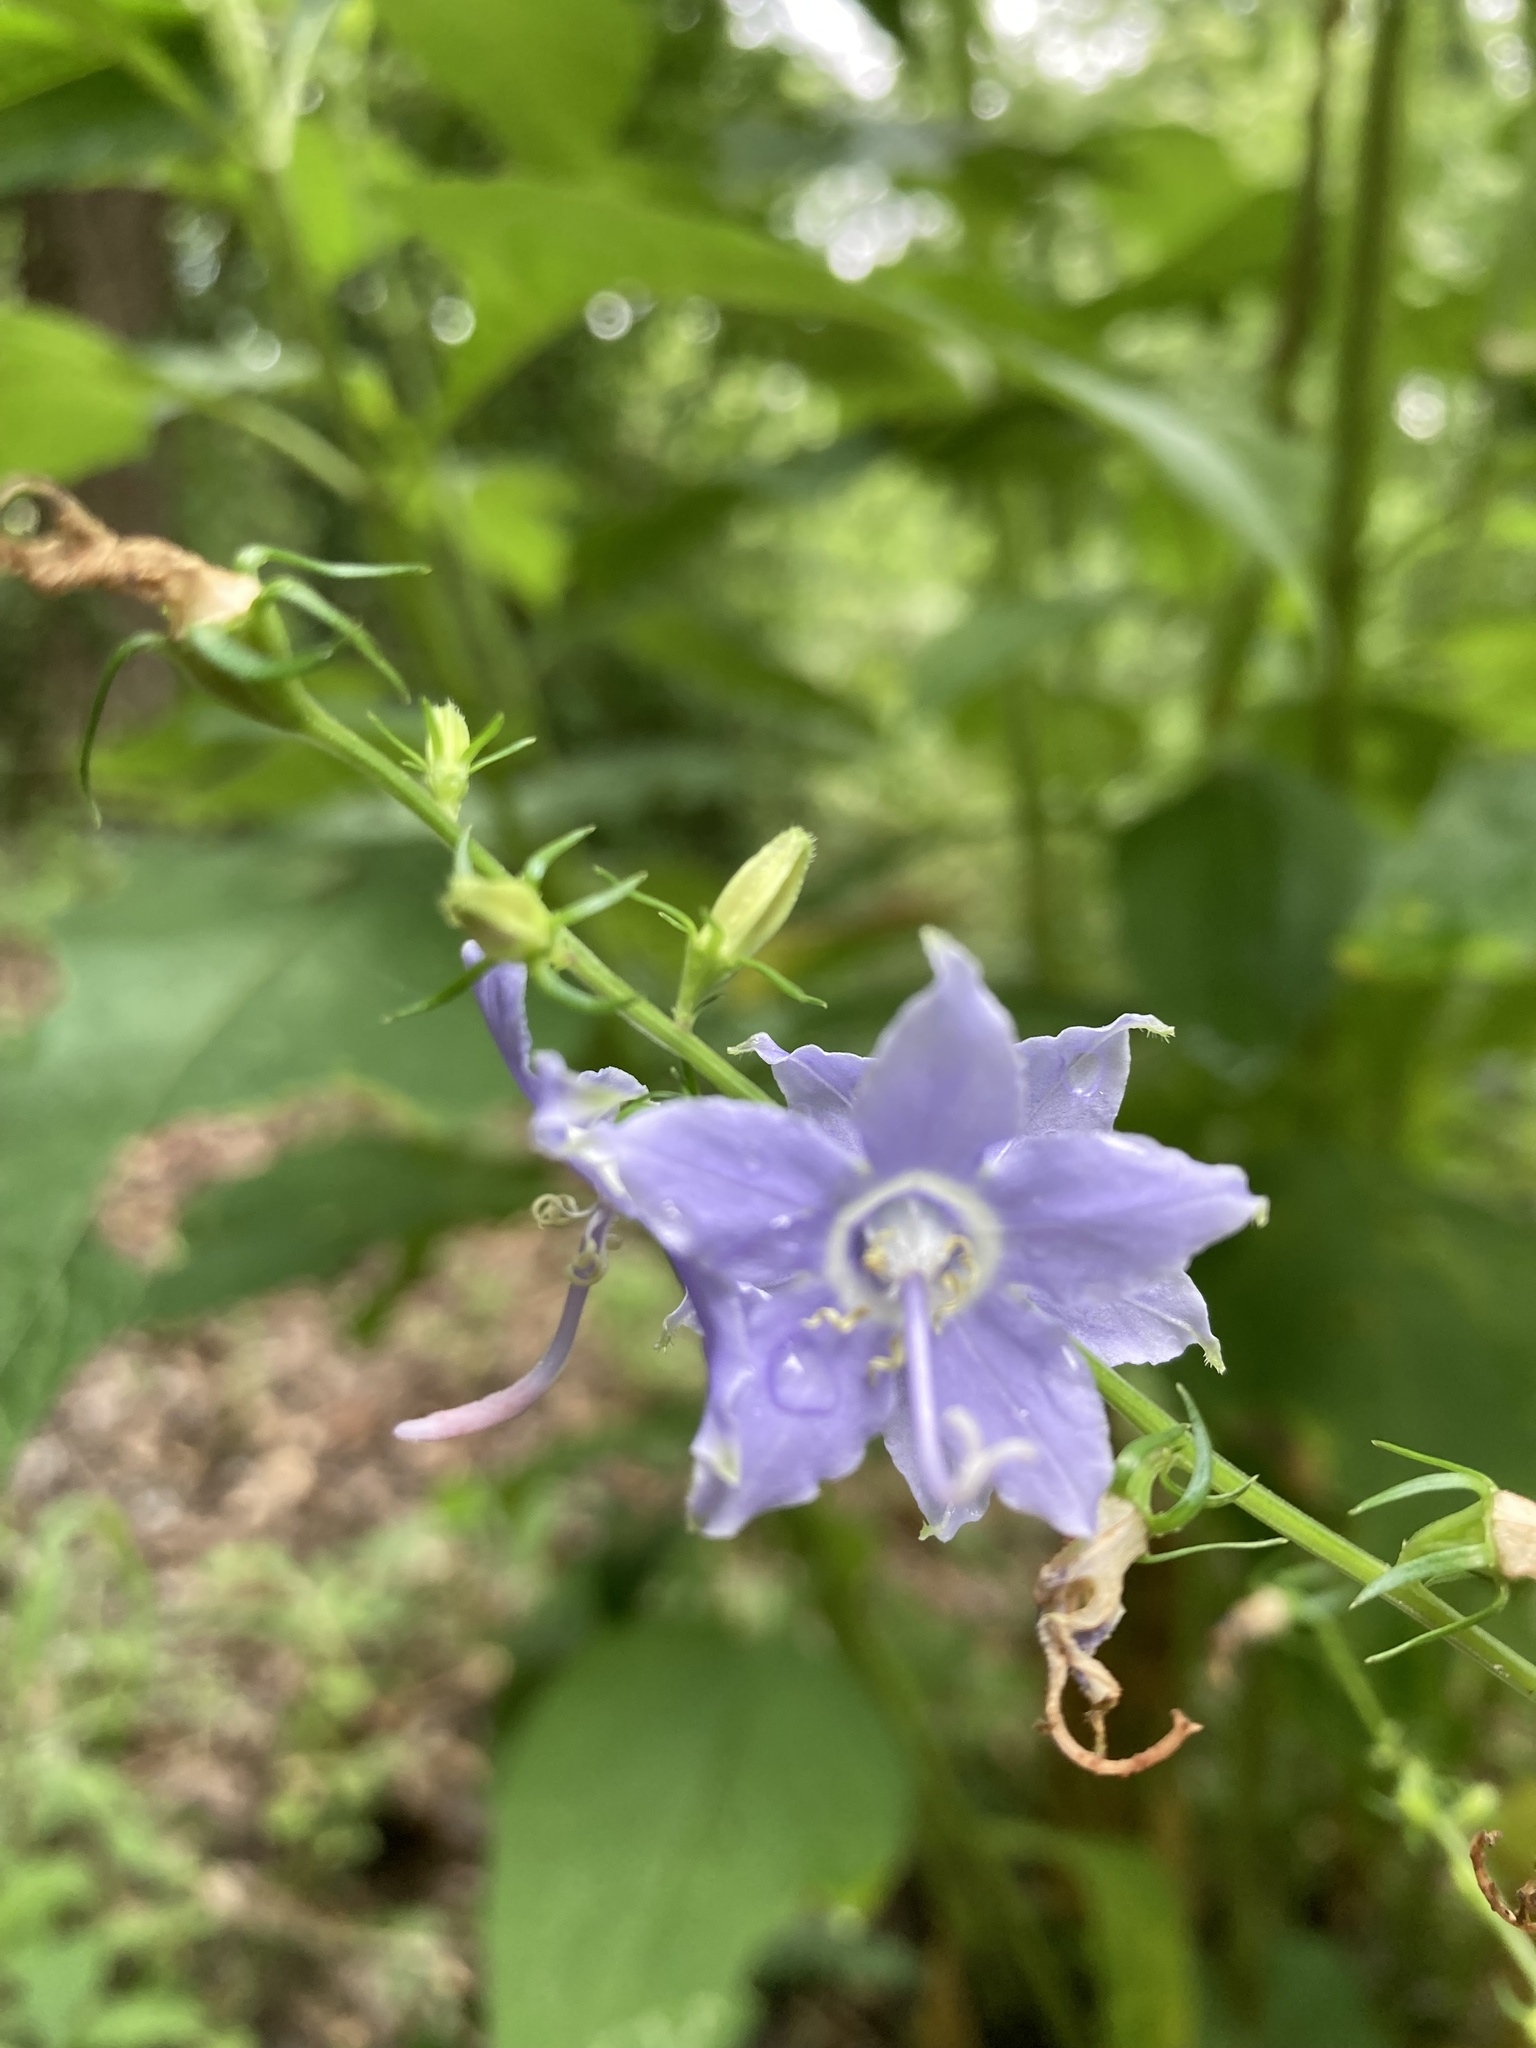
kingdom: Plantae
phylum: Tracheophyta
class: Magnoliopsida
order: Asterales
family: Campanulaceae
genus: Campanulastrum
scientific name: Campanulastrum americanum
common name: American bellflower
